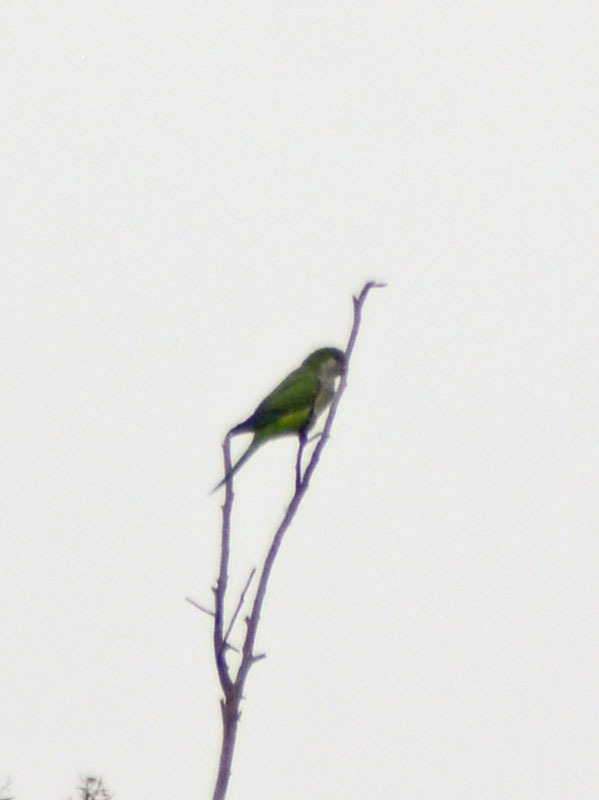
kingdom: Animalia
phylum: Chordata
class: Aves
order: Psittaciformes
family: Psittacidae
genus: Myiopsitta
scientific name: Myiopsitta monachus
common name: Monk parakeet
